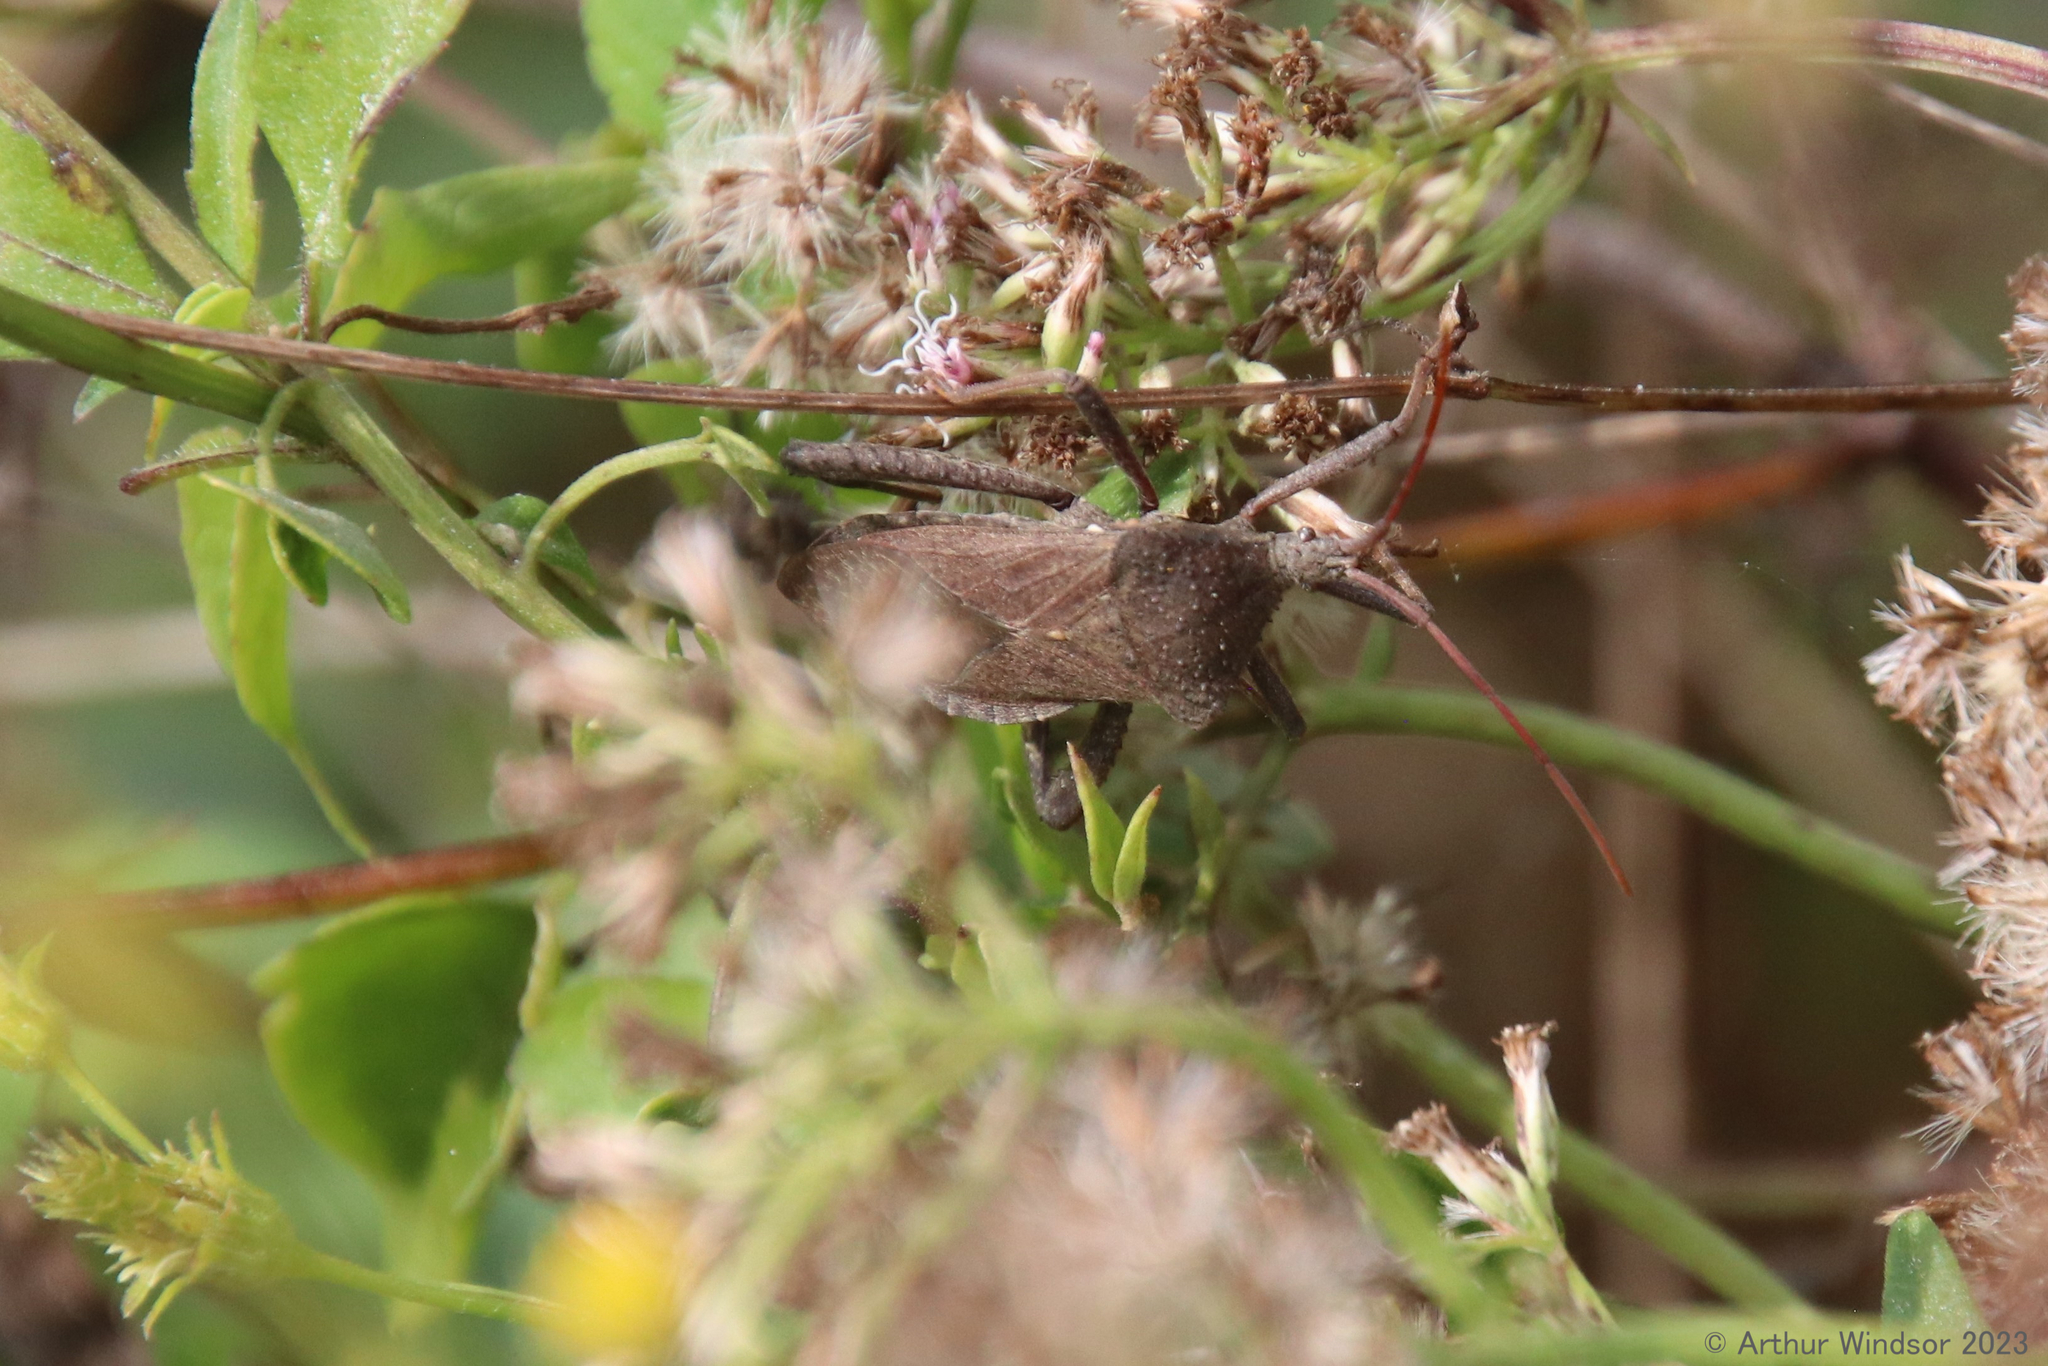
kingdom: Animalia
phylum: Arthropoda
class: Insecta
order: Hemiptera
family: Coreidae
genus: Acanthocephala
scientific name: Acanthocephala femorata
